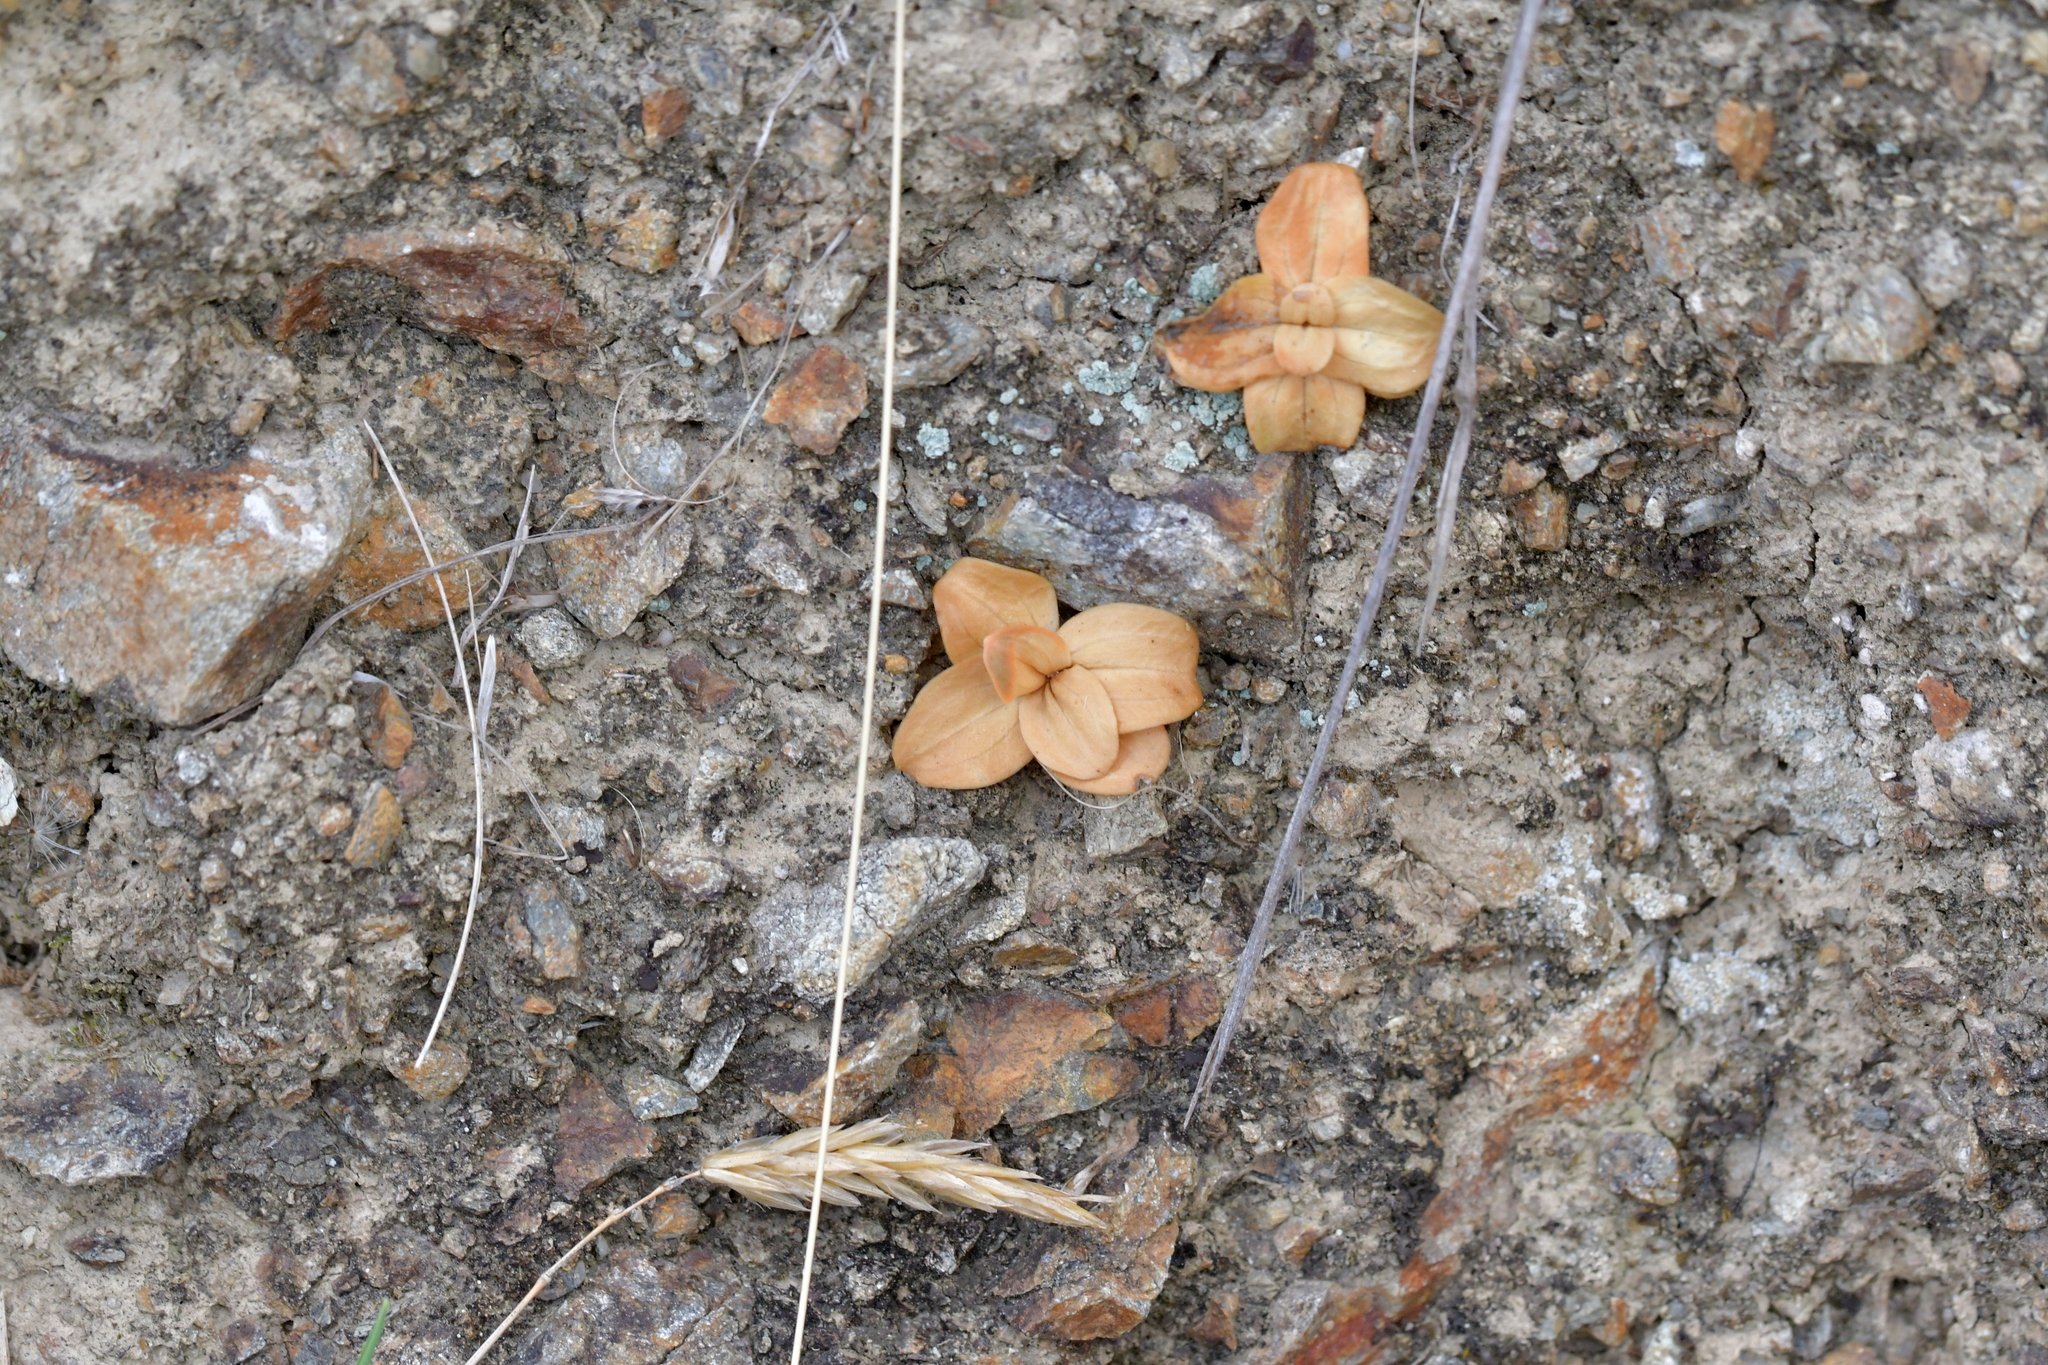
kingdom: Plantae
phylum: Tracheophyta
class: Magnoliopsida
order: Gentianales
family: Gentianaceae
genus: Centaurium
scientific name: Centaurium erythraea
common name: Common centaury
